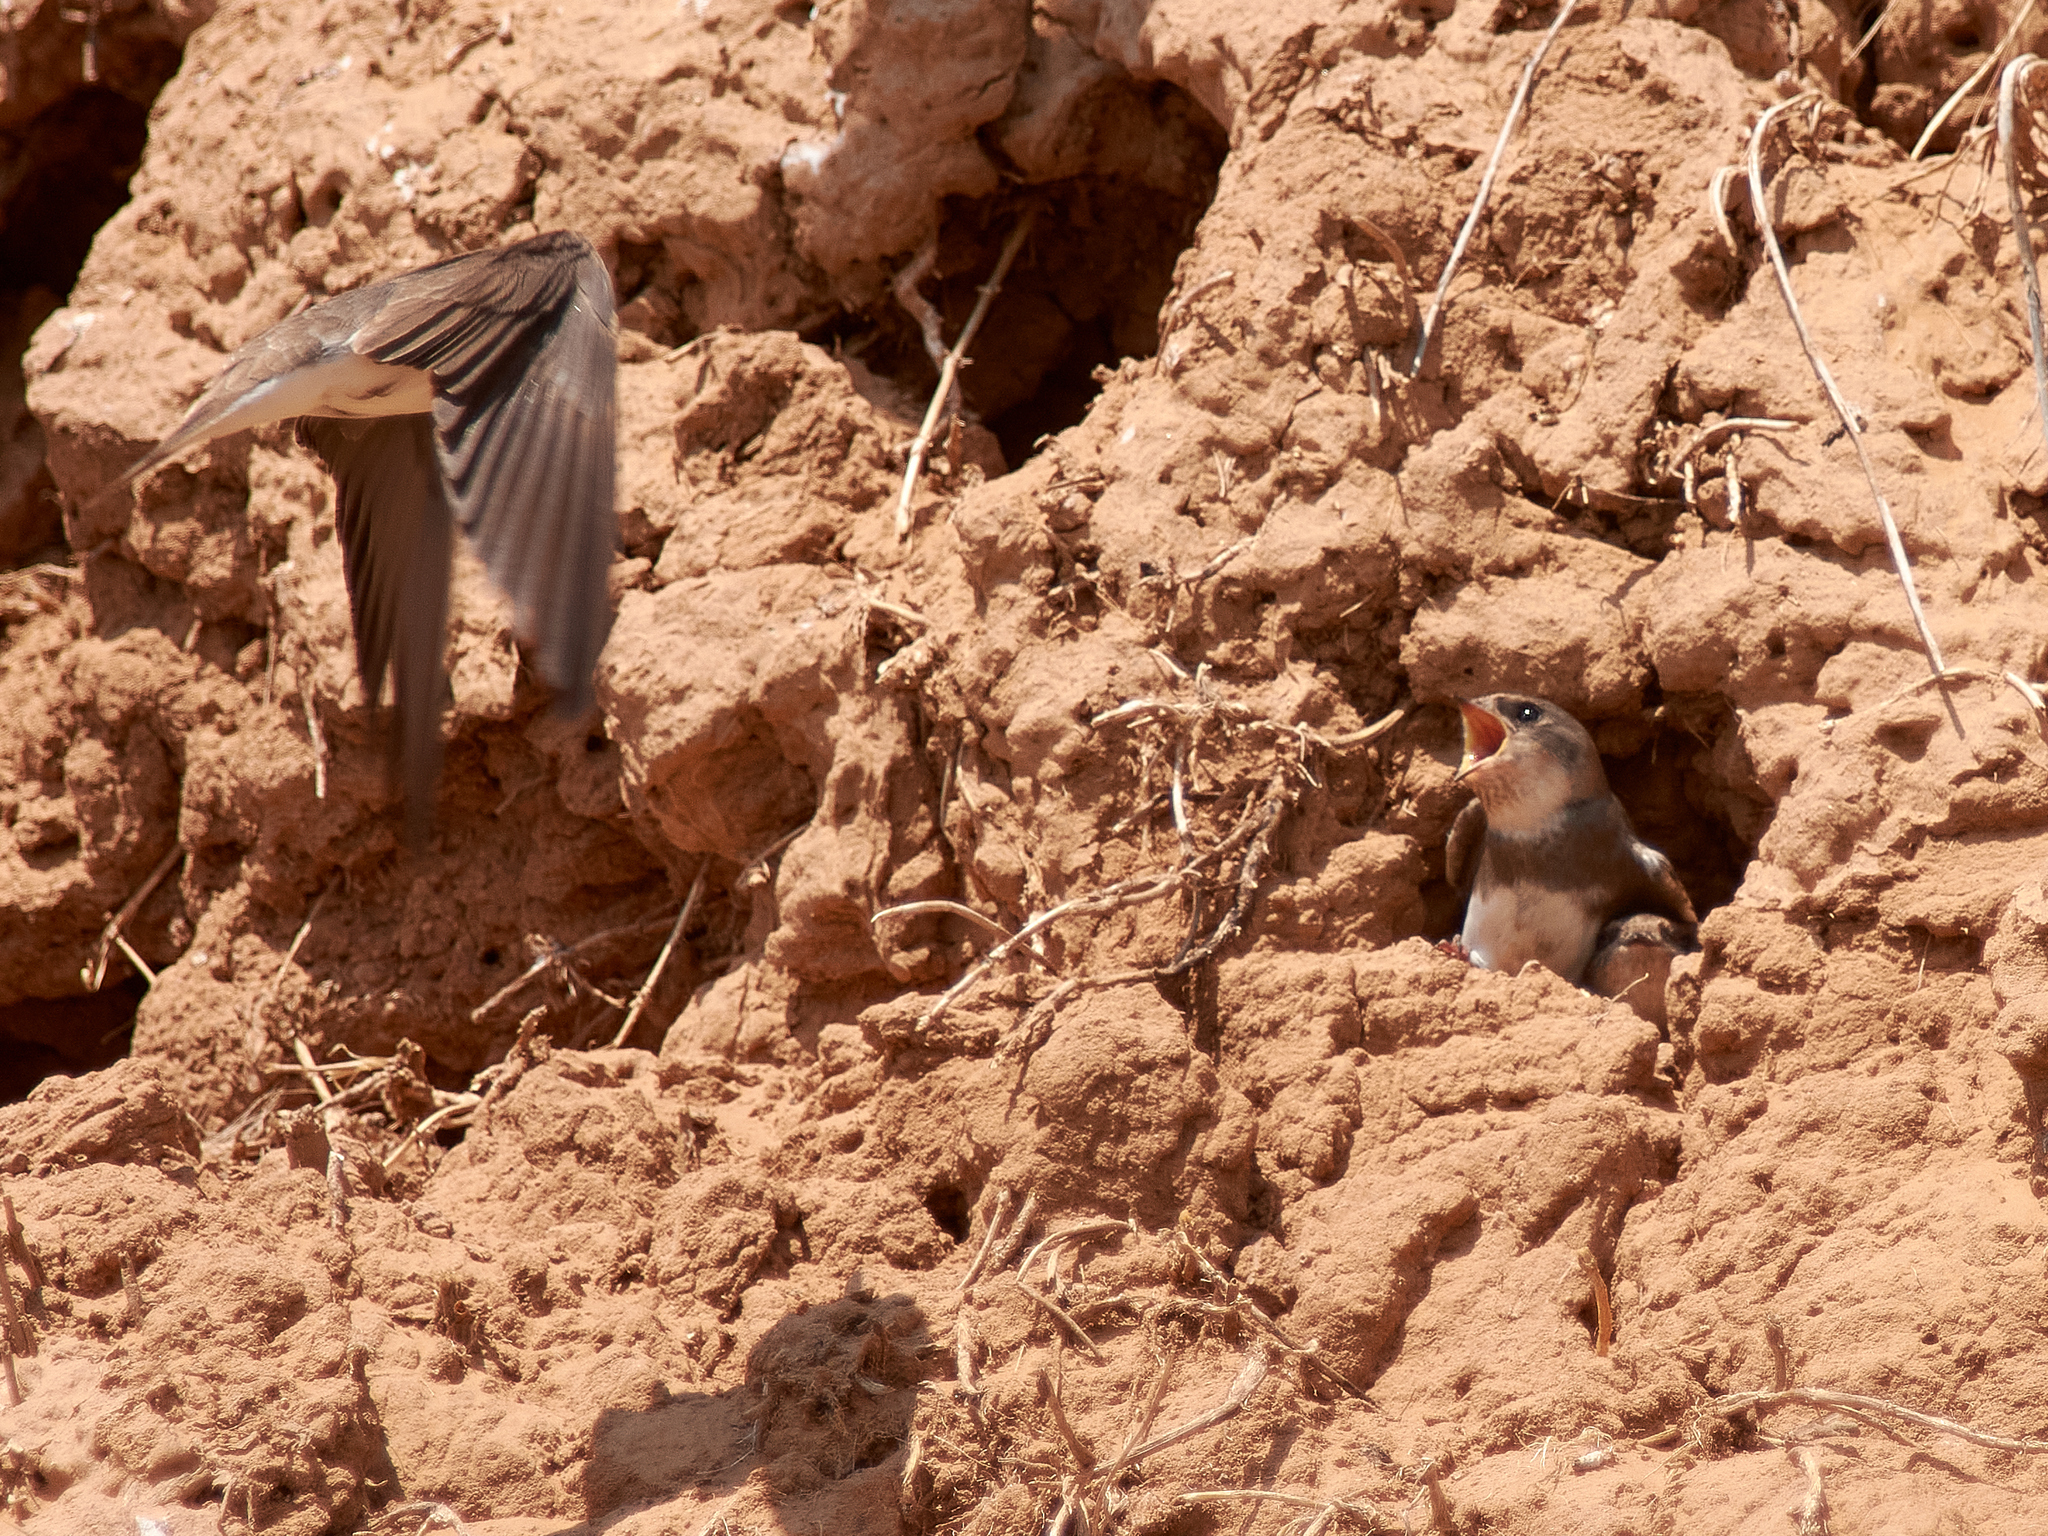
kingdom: Animalia
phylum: Chordata
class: Aves
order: Passeriformes
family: Hirundinidae
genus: Riparia
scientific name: Riparia riparia
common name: Sand martin
